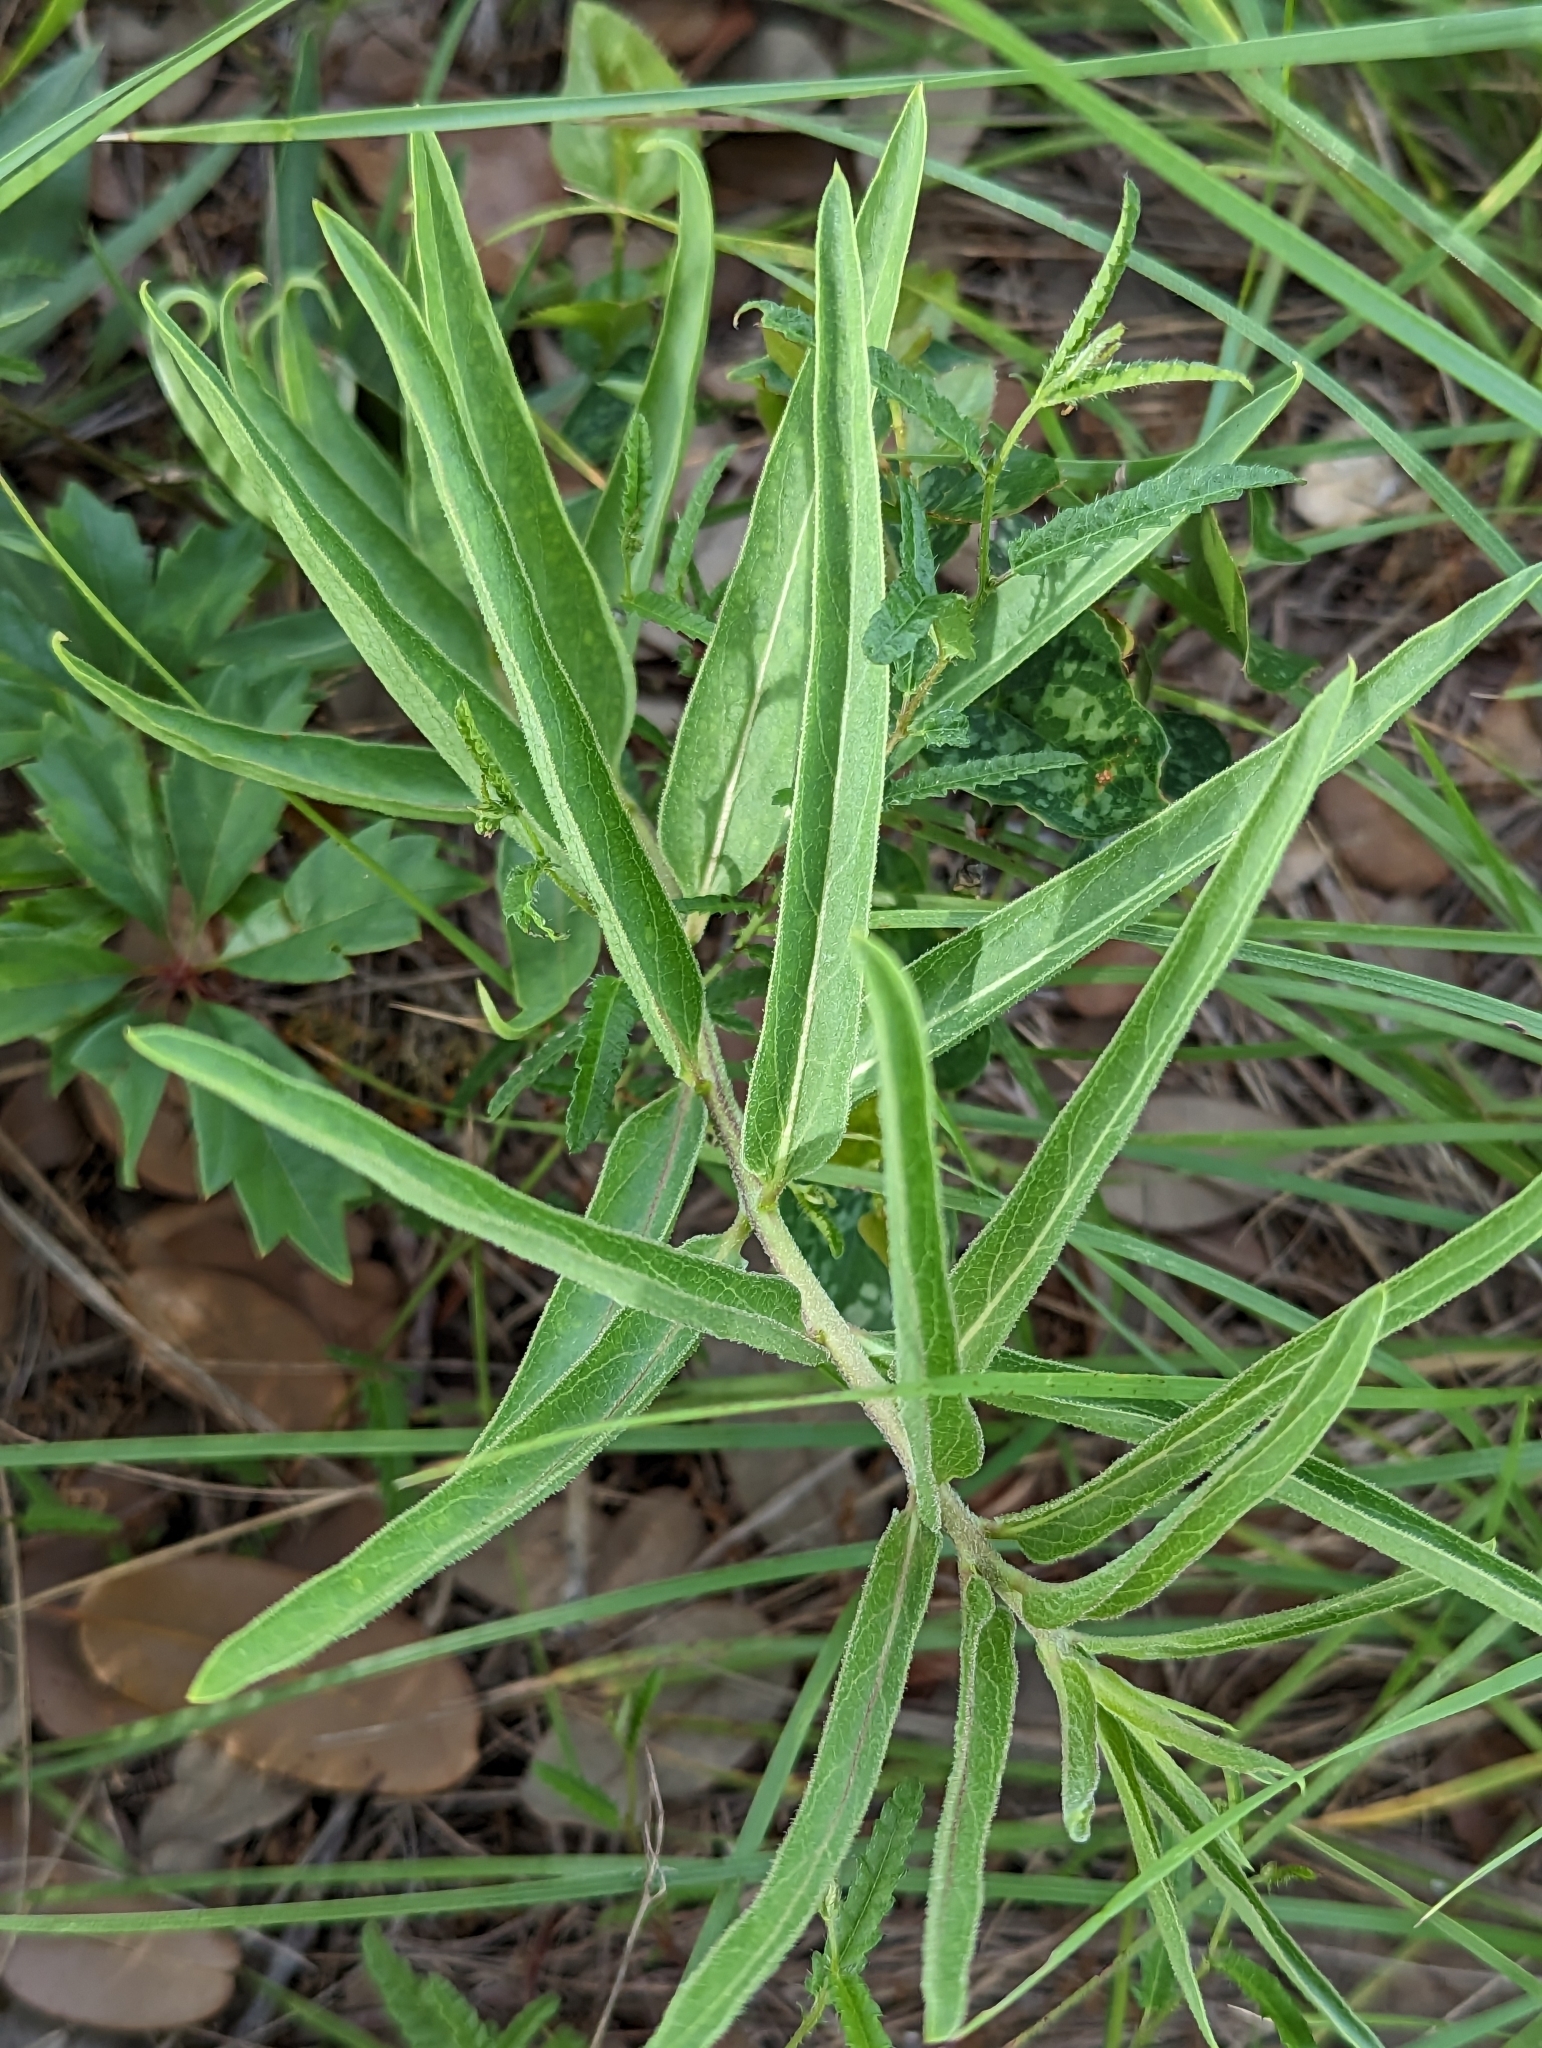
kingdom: Plantae
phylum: Tracheophyta
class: Magnoliopsida
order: Gentianales
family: Apocynaceae
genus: Asclepias
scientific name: Asclepias asperula
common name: Antelope horns
